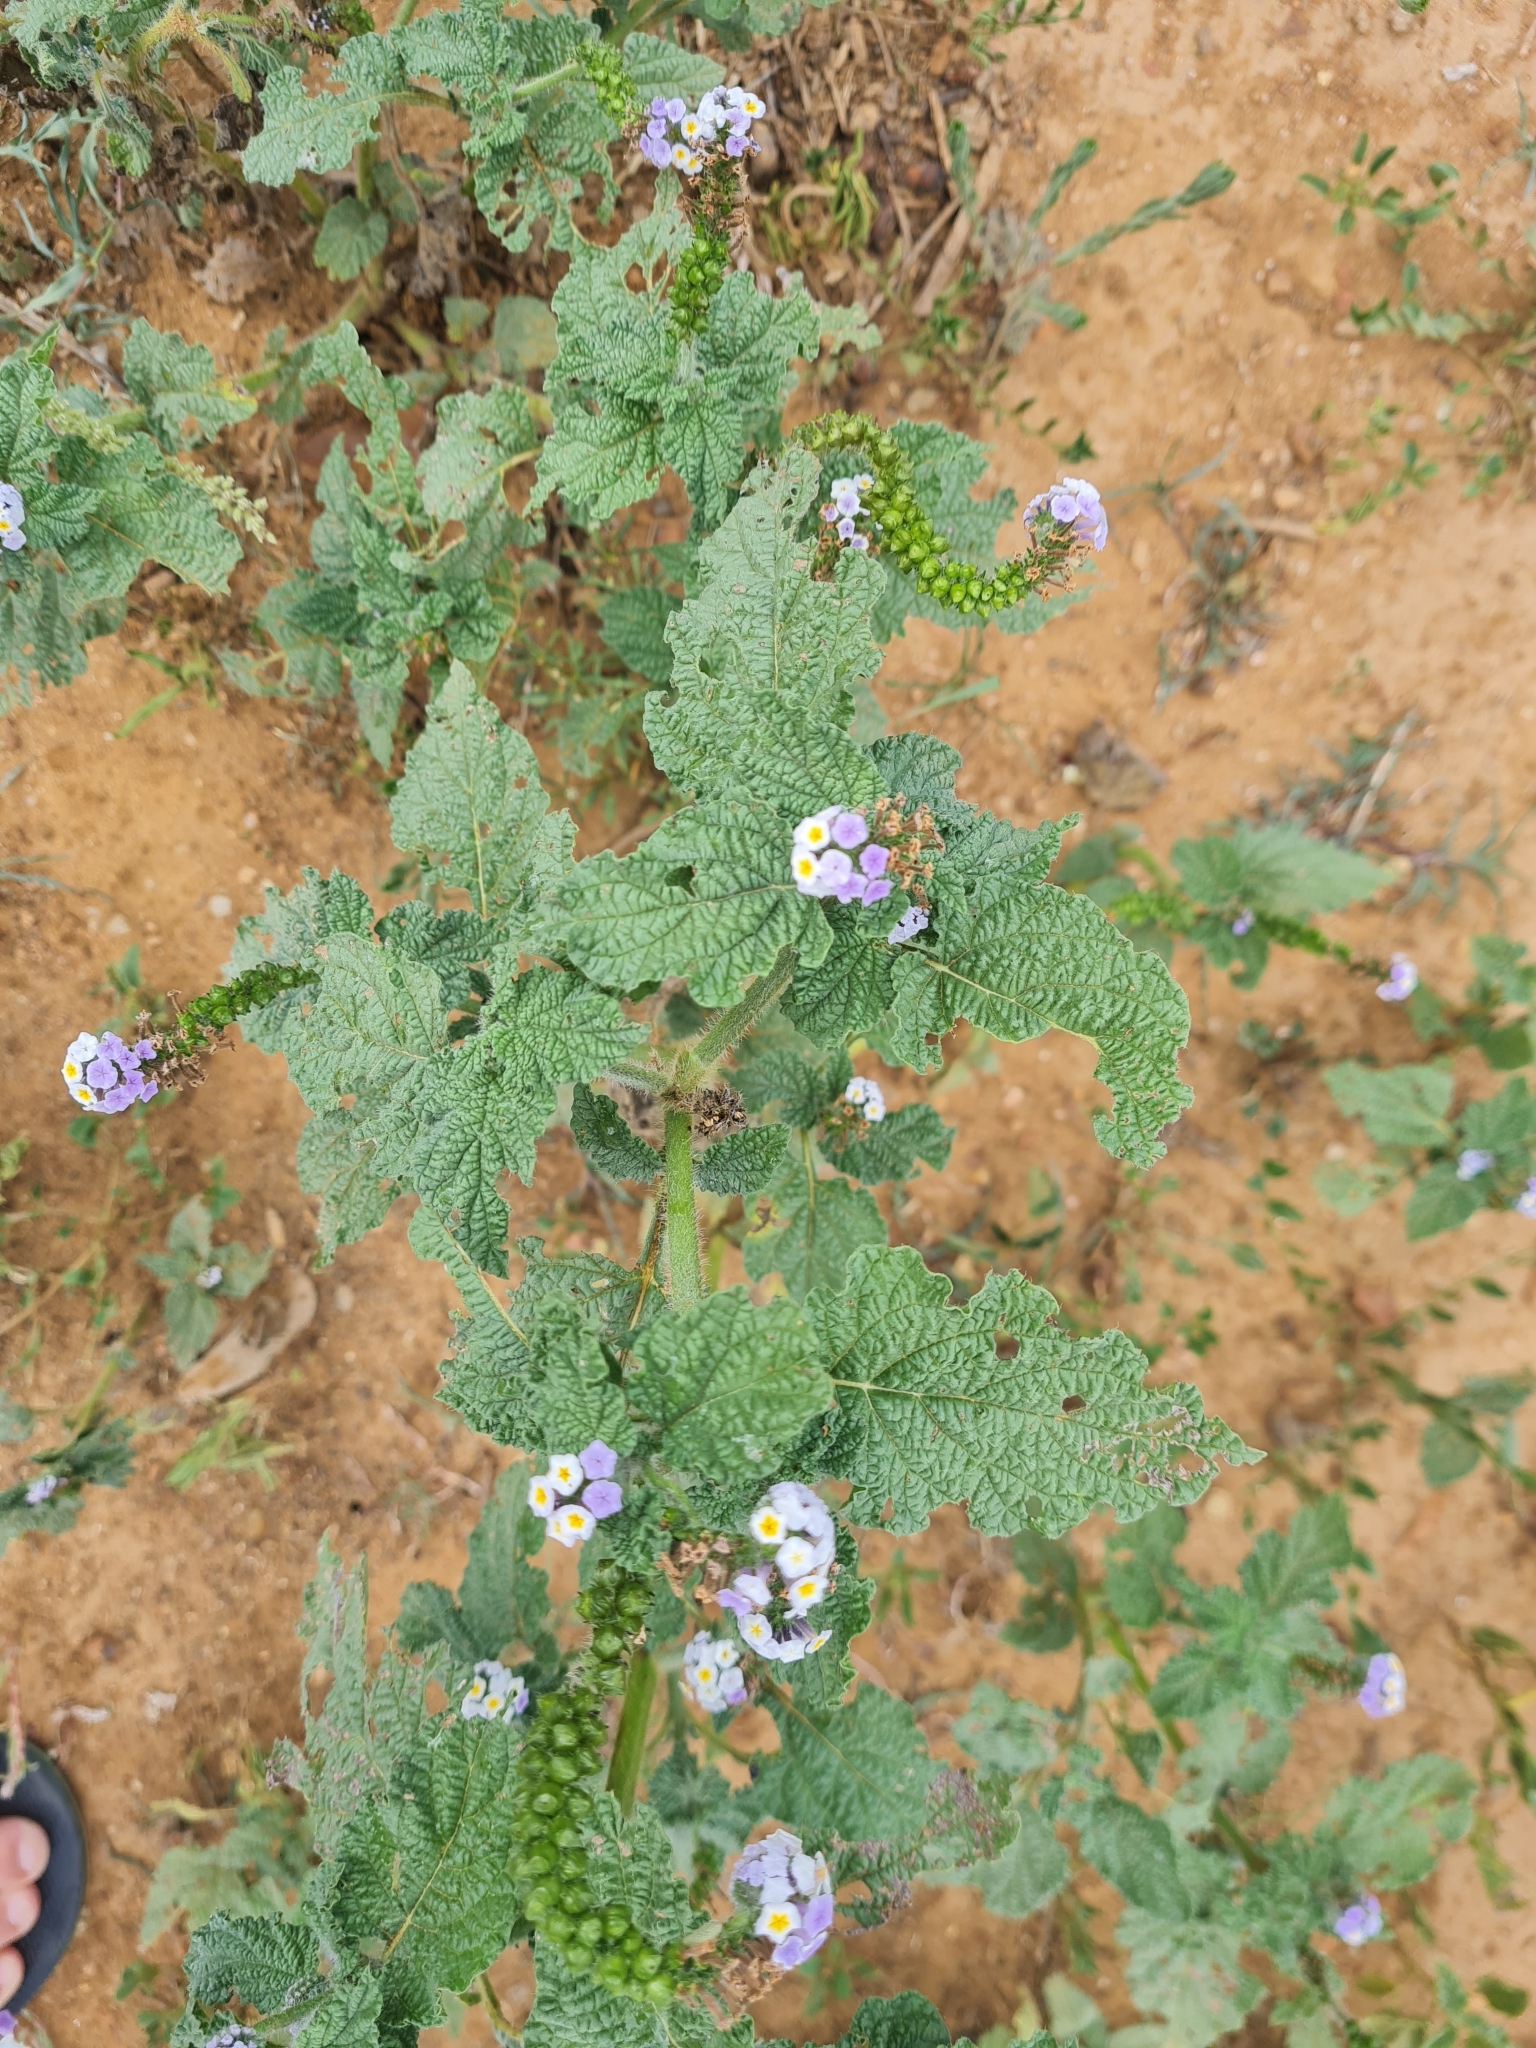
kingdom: Plantae
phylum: Tracheophyta
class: Magnoliopsida
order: Boraginales
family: Heliotropiaceae
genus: Heliotropium
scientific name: Heliotropium elongatum
